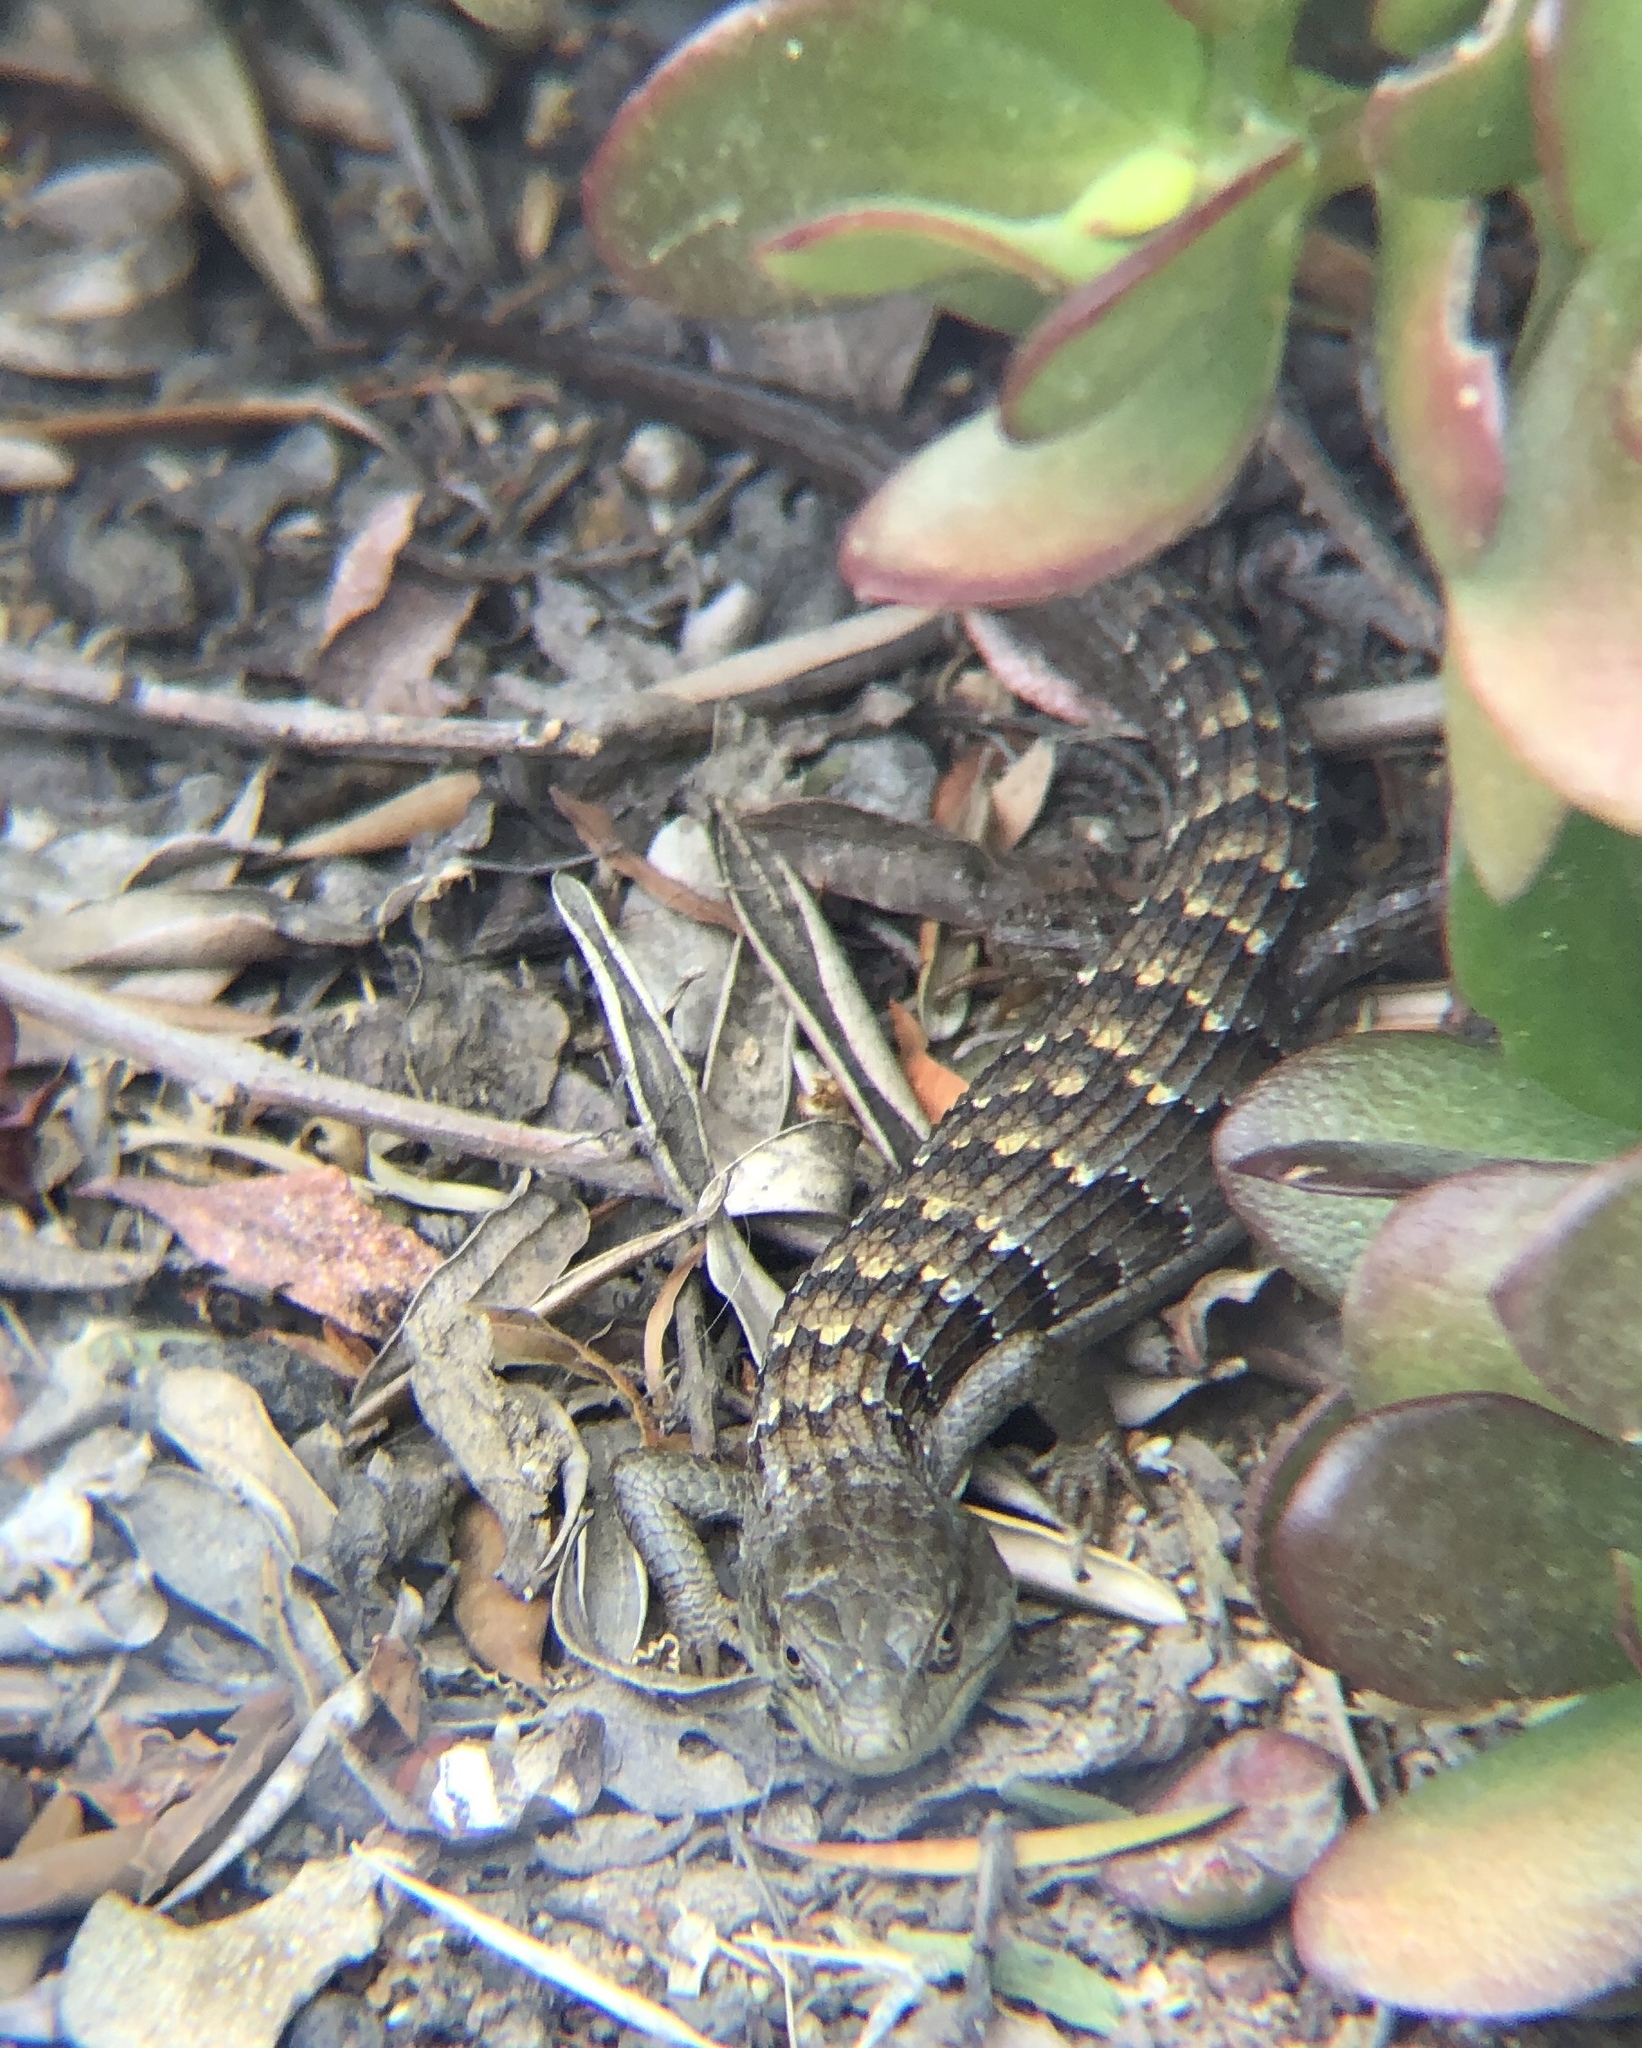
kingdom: Animalia
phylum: Chordata
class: Squamata
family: Anguidae
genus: Elgaria
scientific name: Elgaria multicarinata
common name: Southern alligator lizard
